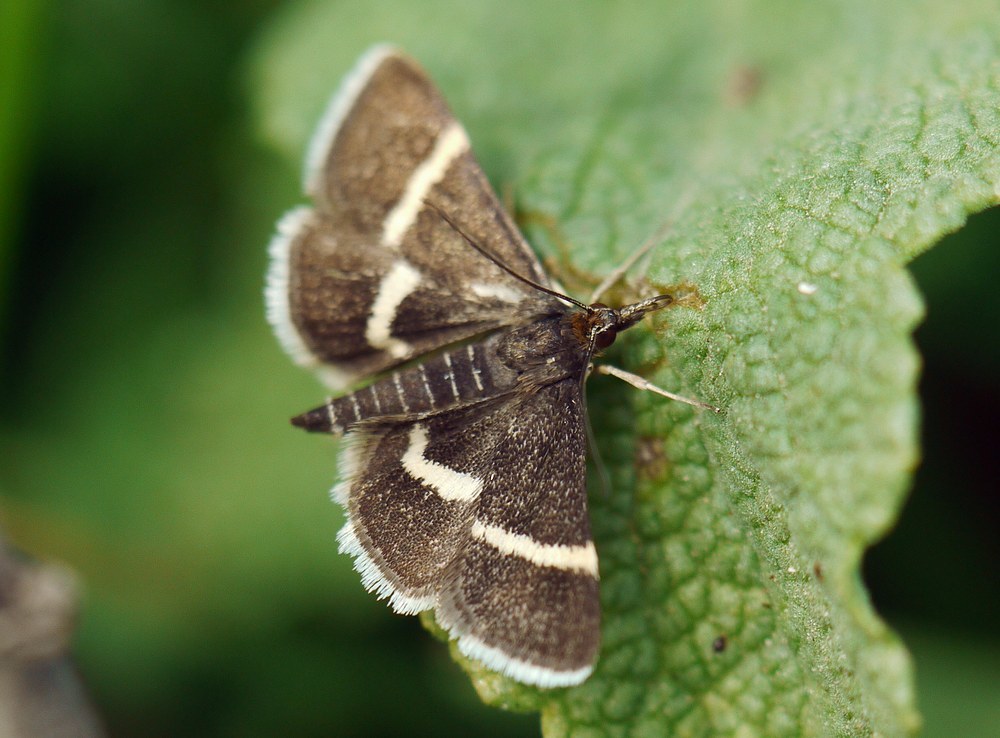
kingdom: Animalia
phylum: Arthropoda
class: Insecta
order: Lepidoptera
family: Crambidae
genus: Pyrausta
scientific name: Pyrausta rectefascialis
